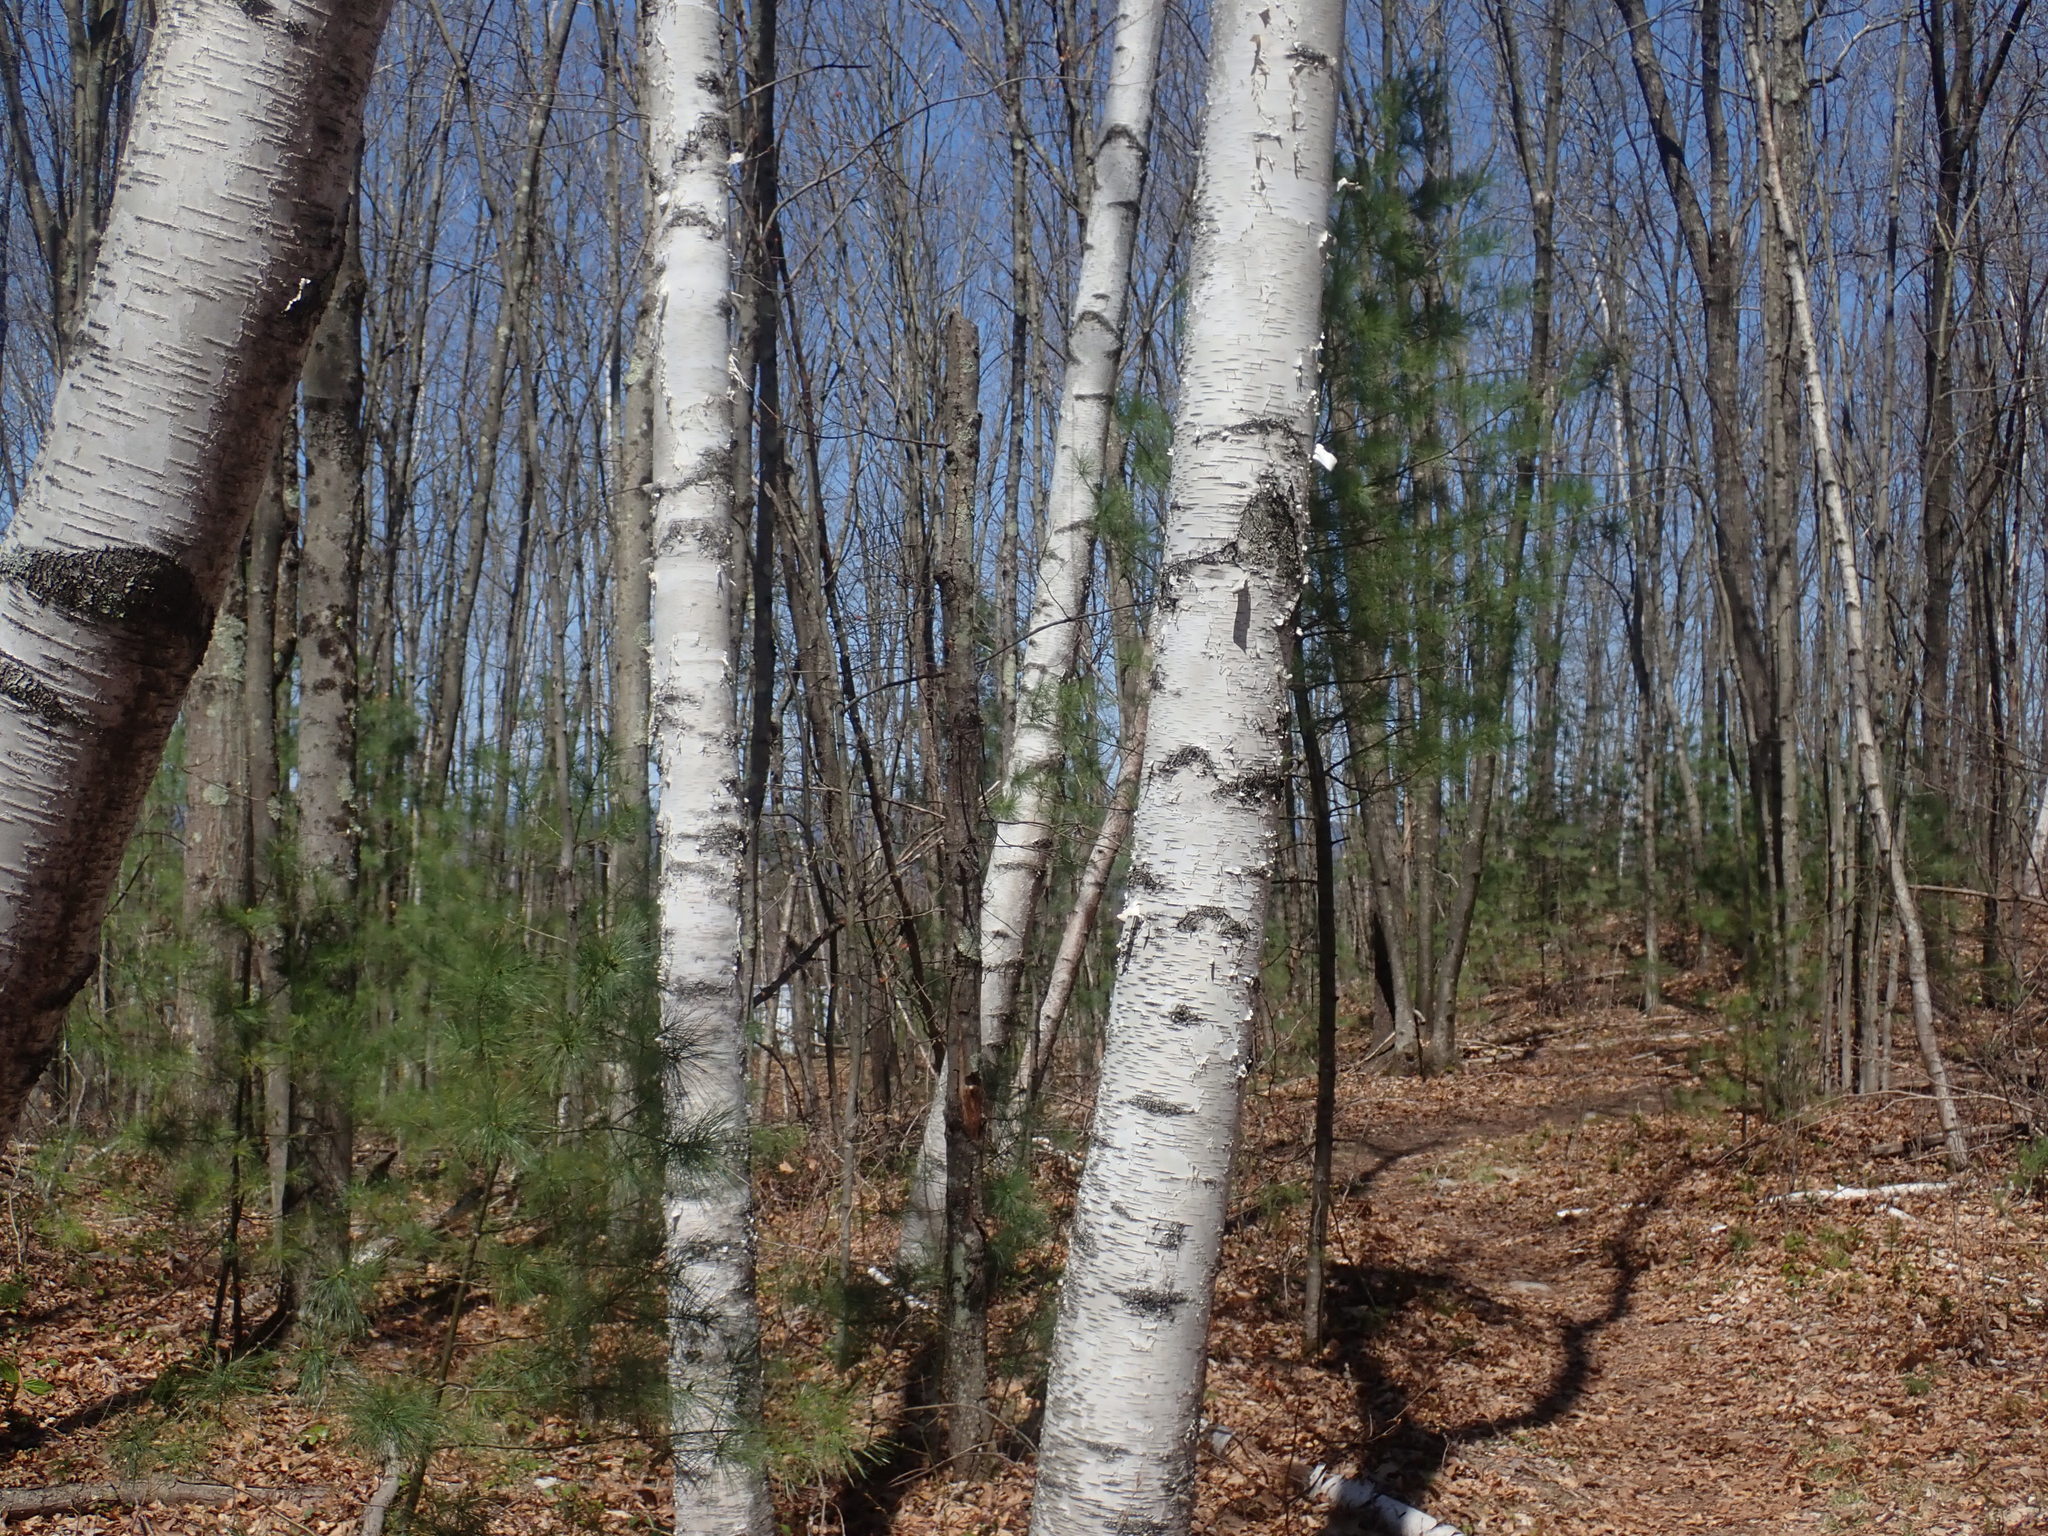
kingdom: Plantae
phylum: Tracheophyta
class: Magnoliopsida
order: Fagales
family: Betulaceae
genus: Betula
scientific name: Betula papyrifera
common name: Paper birch
